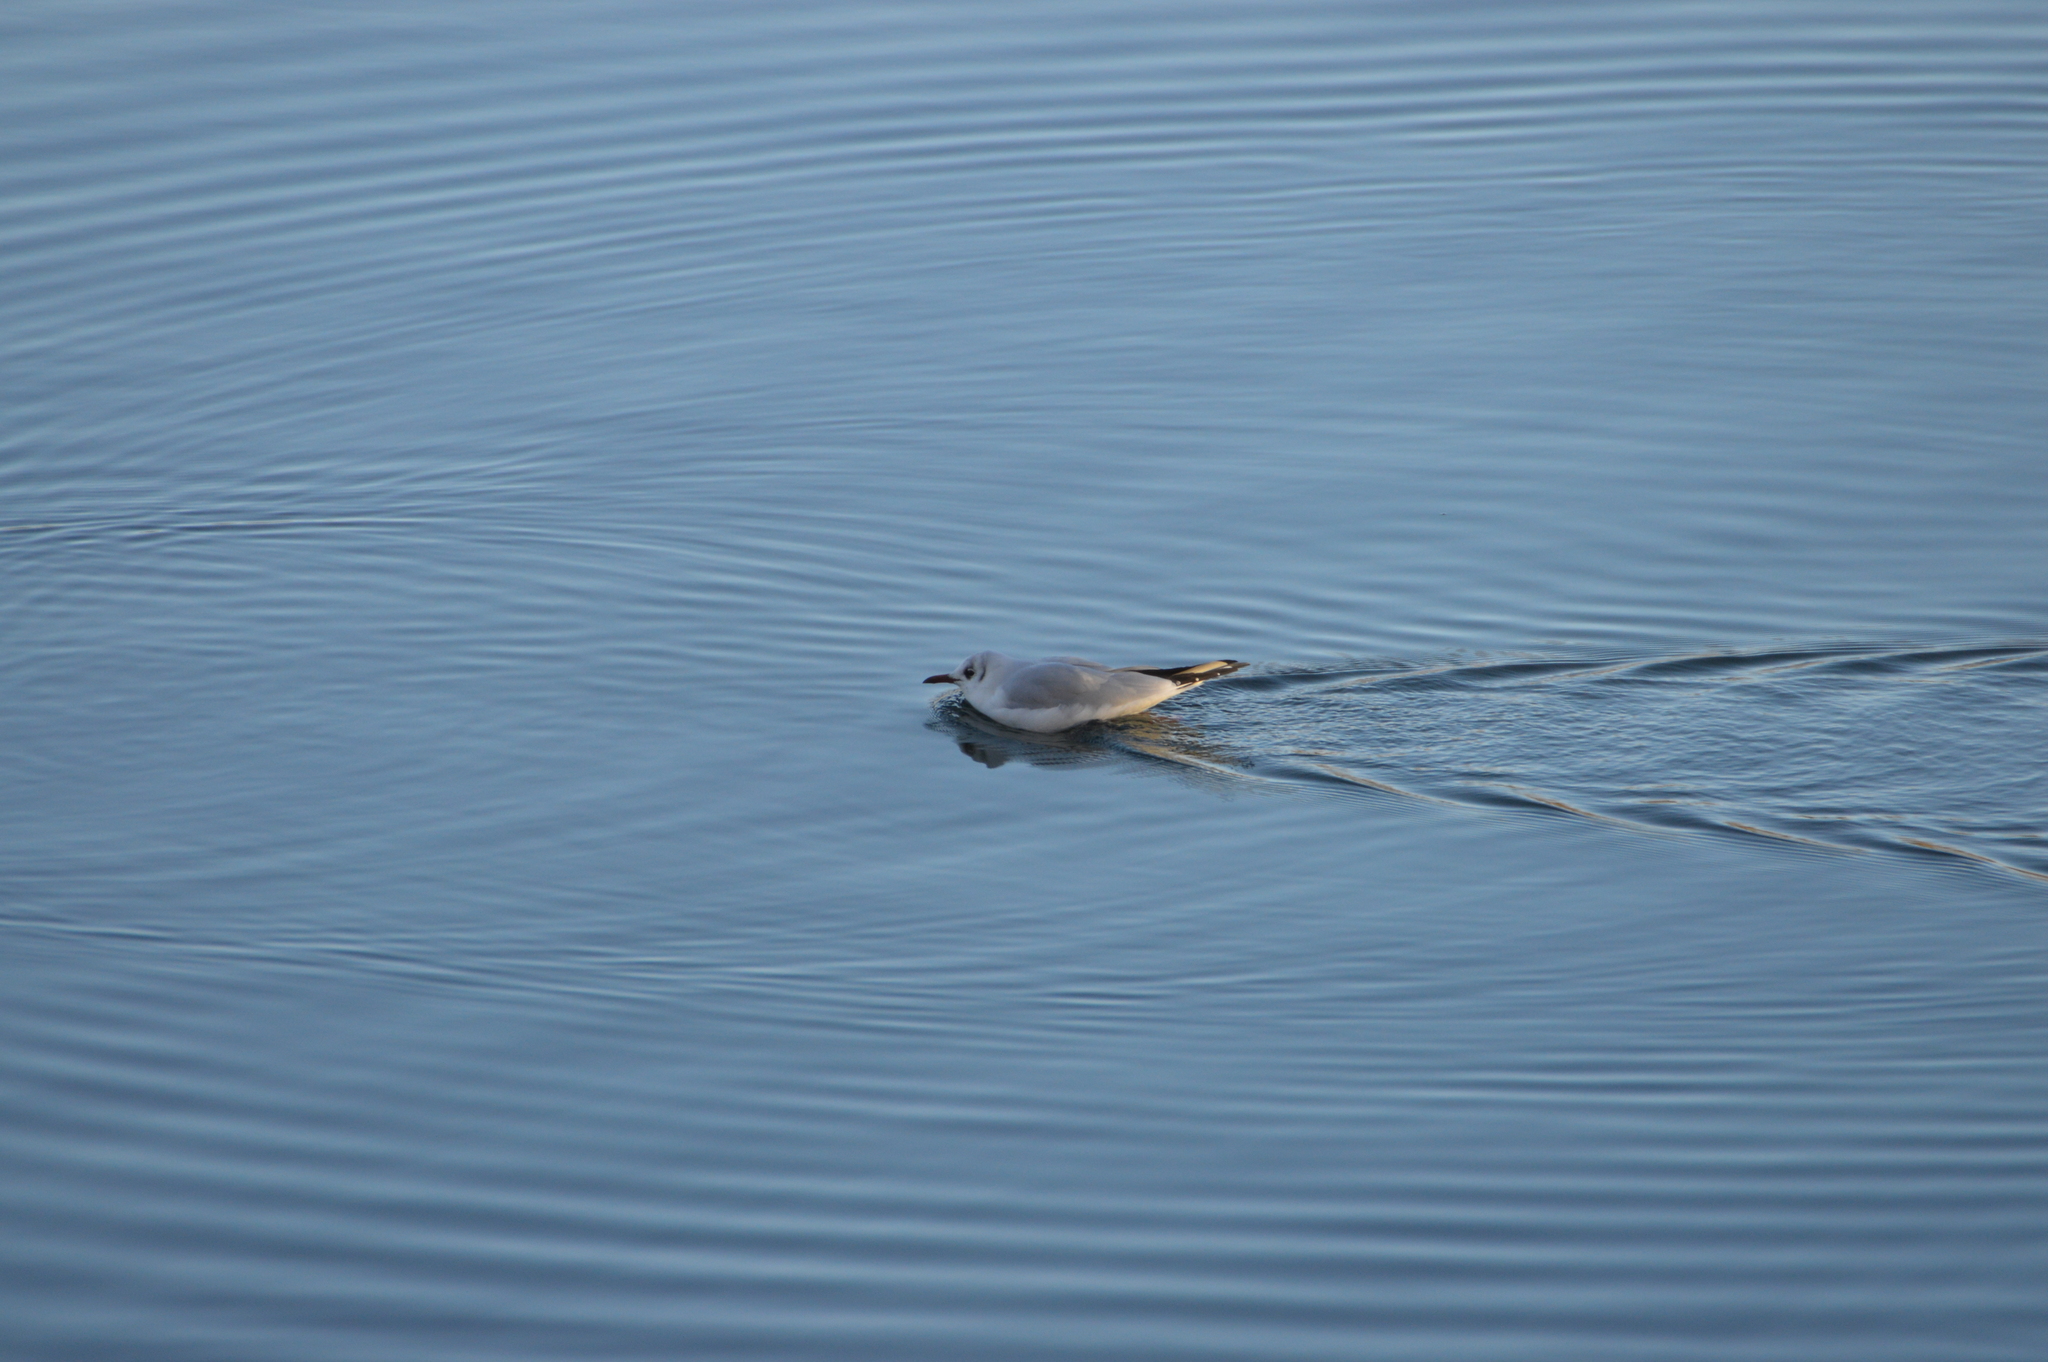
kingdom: Animalia
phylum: Chordata
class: Aves
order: Charadriiformes
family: Laridae
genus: Chroicocephalus
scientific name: Chroicocephalus ridibundus
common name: Black-headed gull
